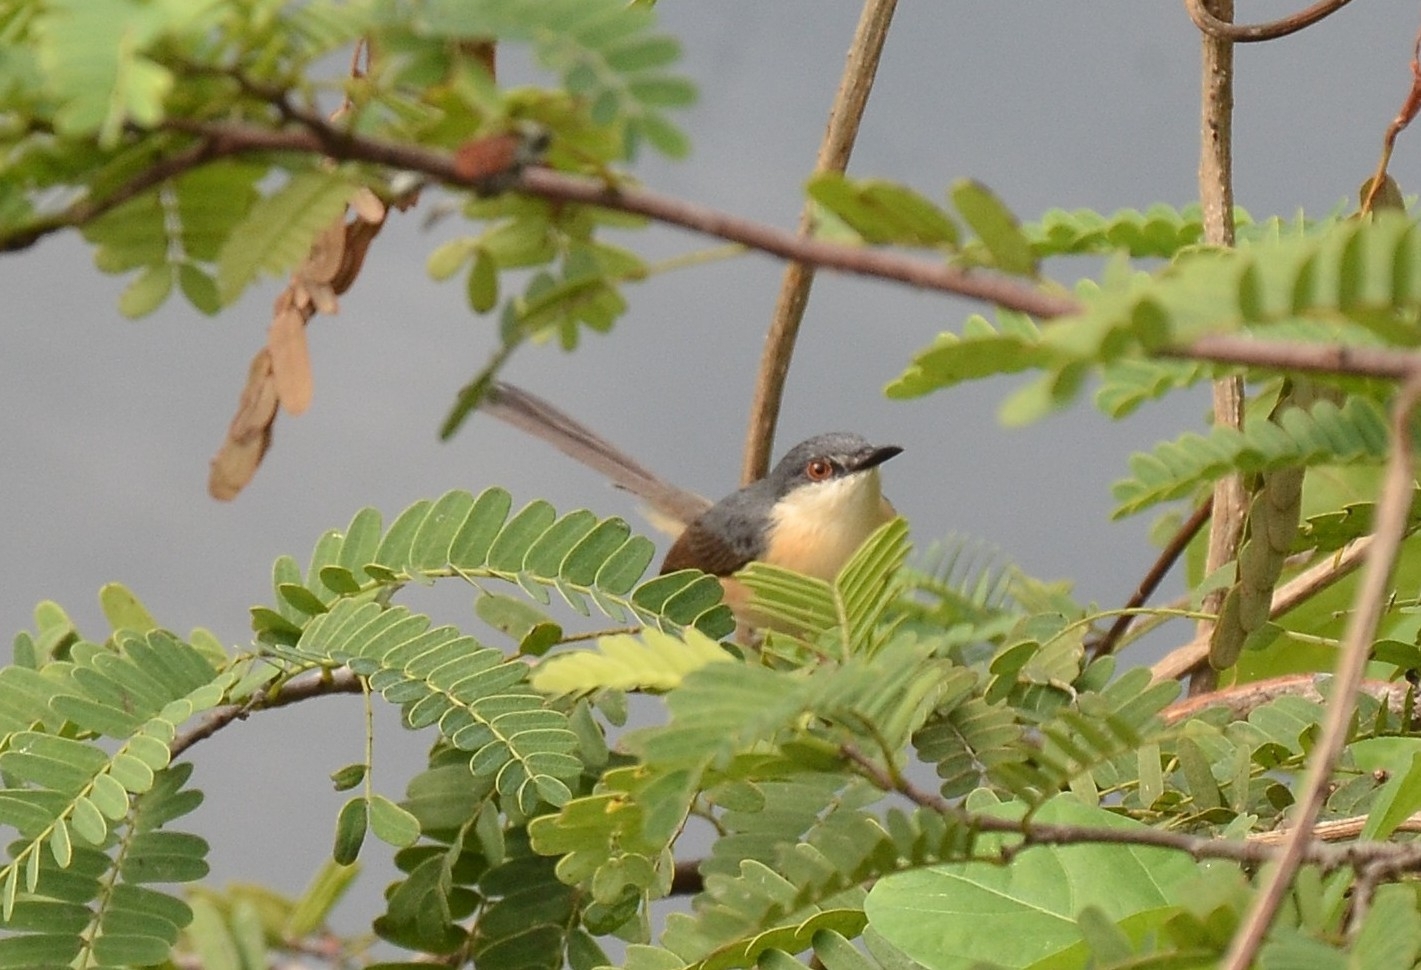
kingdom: Animalia
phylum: Chordata
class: Aves
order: Passeriformes
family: Cisticolidae
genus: Prinia
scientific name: Prinia socialis
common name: Ashy prinia
